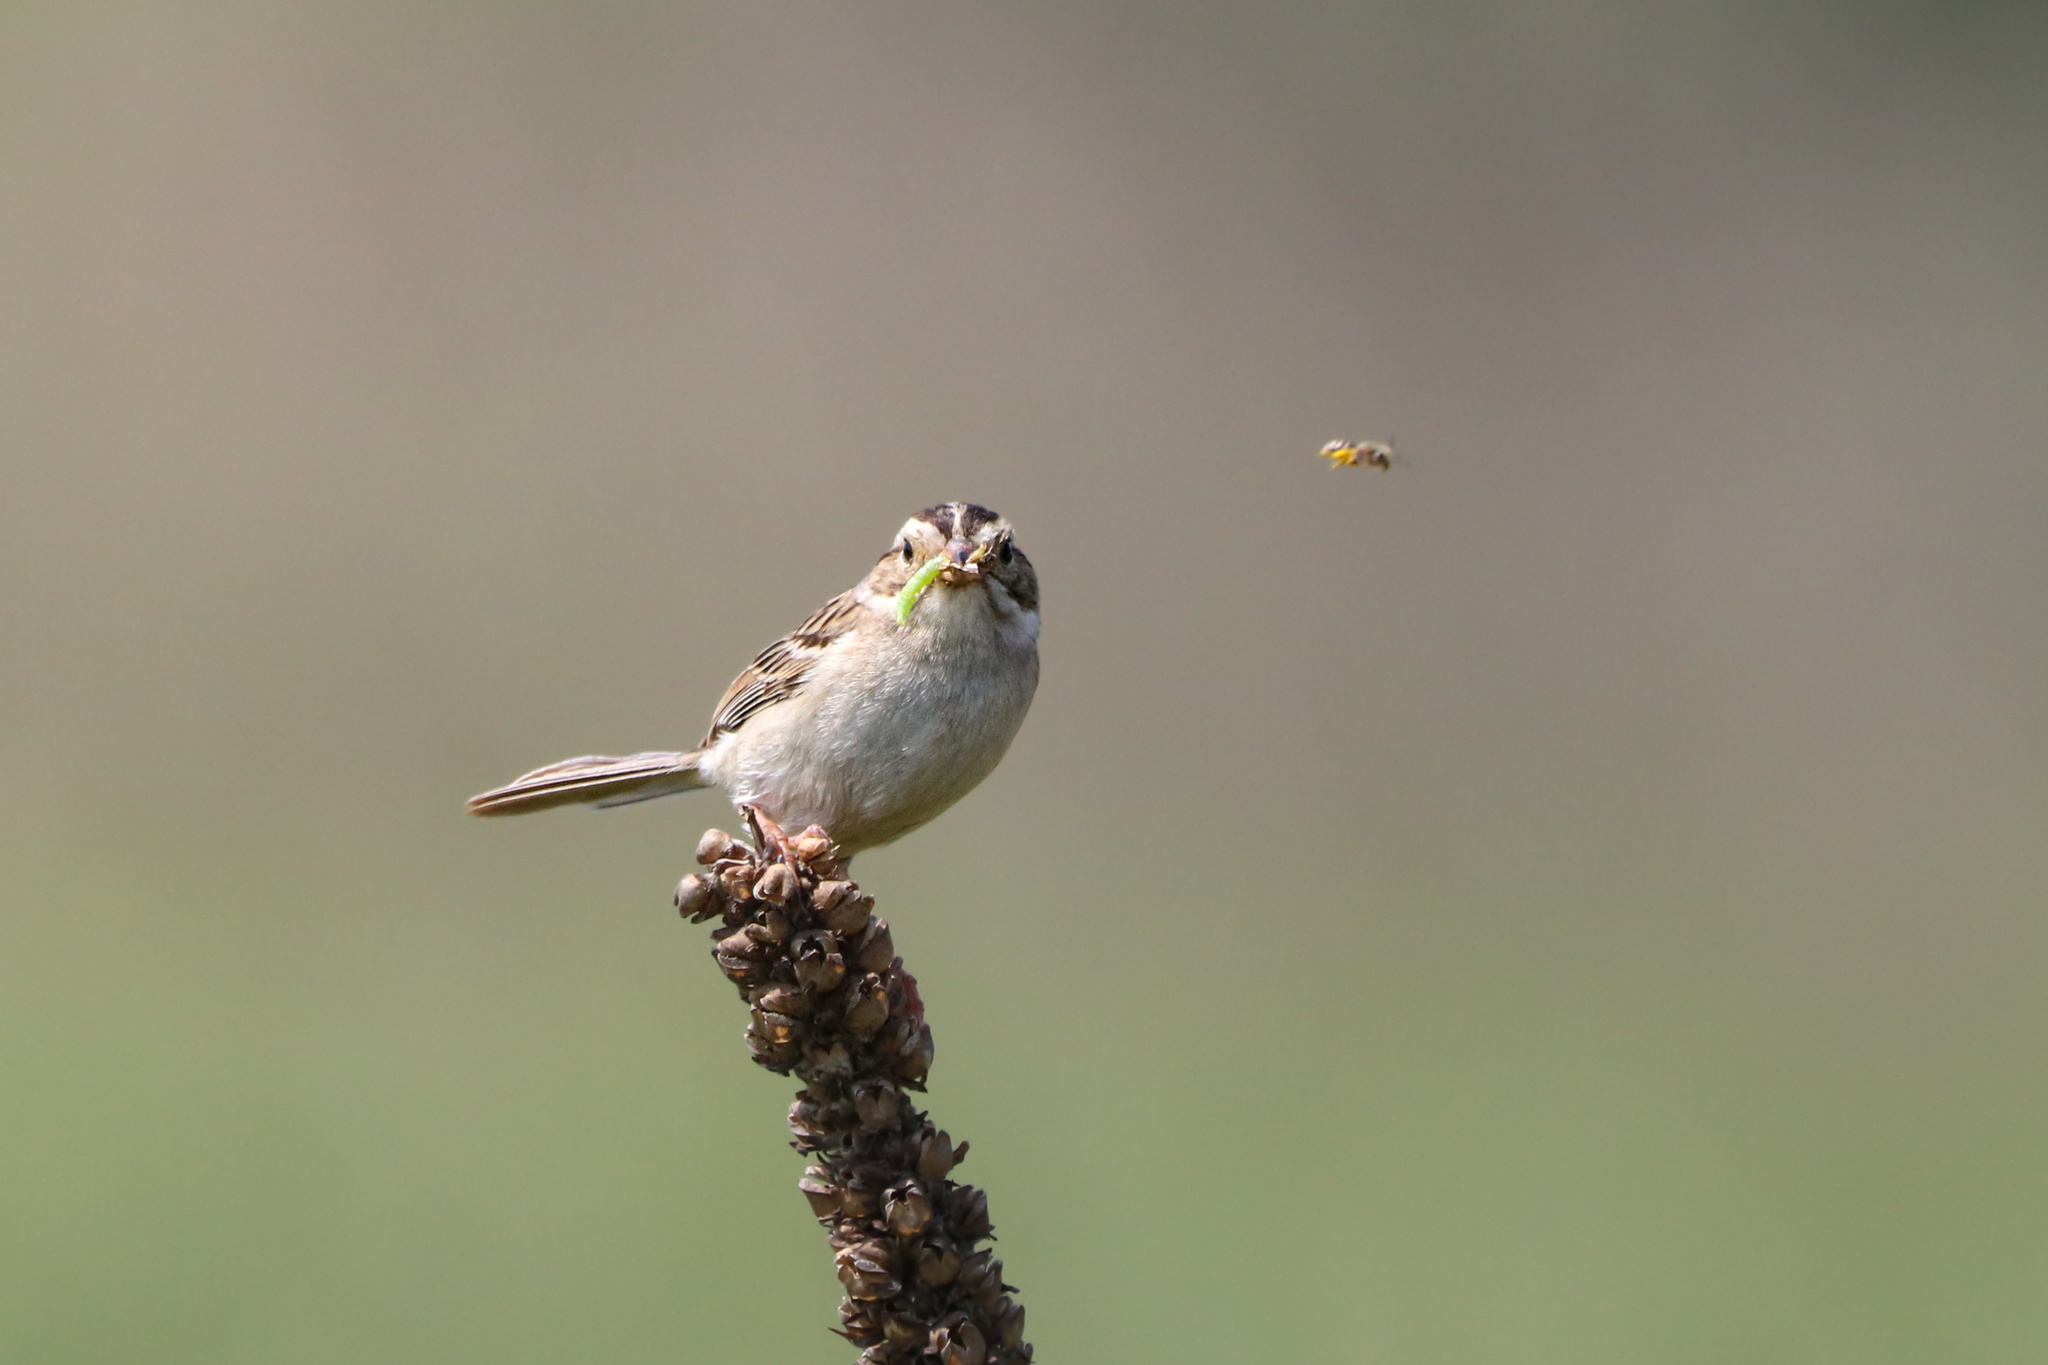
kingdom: Animalia
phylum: Chordata
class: Aves
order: Passeriformes
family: Passerellidae
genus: Spizella
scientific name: Spizella pallida
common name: Clay-colored sparrow
